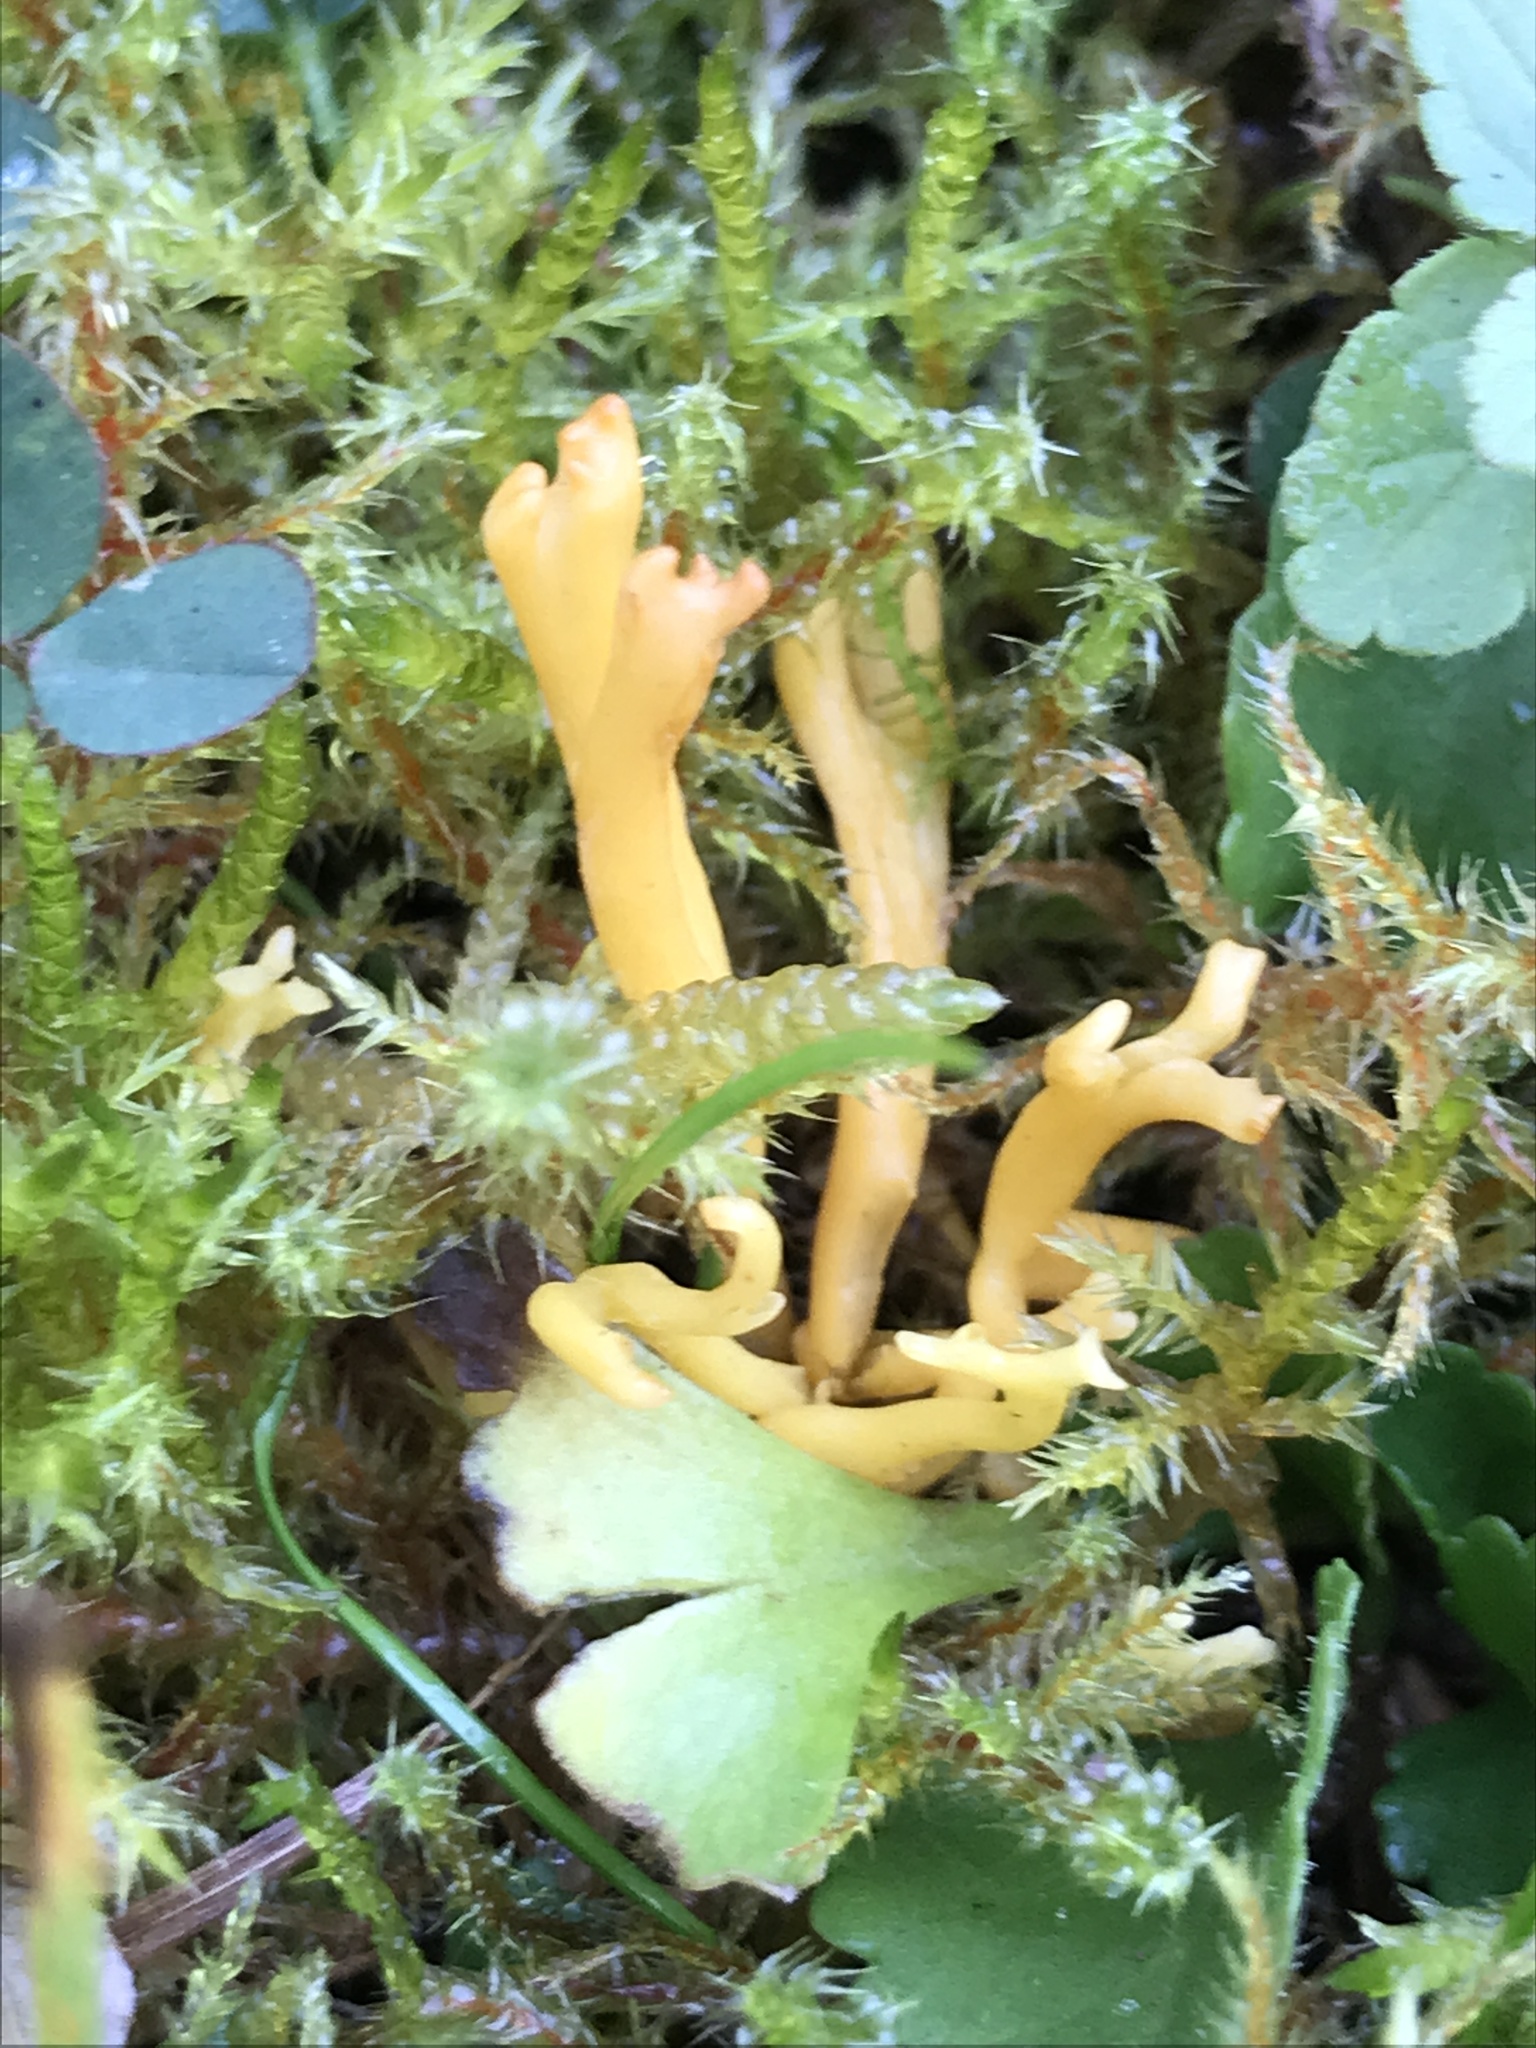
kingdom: Fungi
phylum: Basidiomycota
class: Agaricomycetes
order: Agaricales
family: Clavariaceae
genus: Clavulinopsis
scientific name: Clavulinopsis corniculata
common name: Meadow coral
